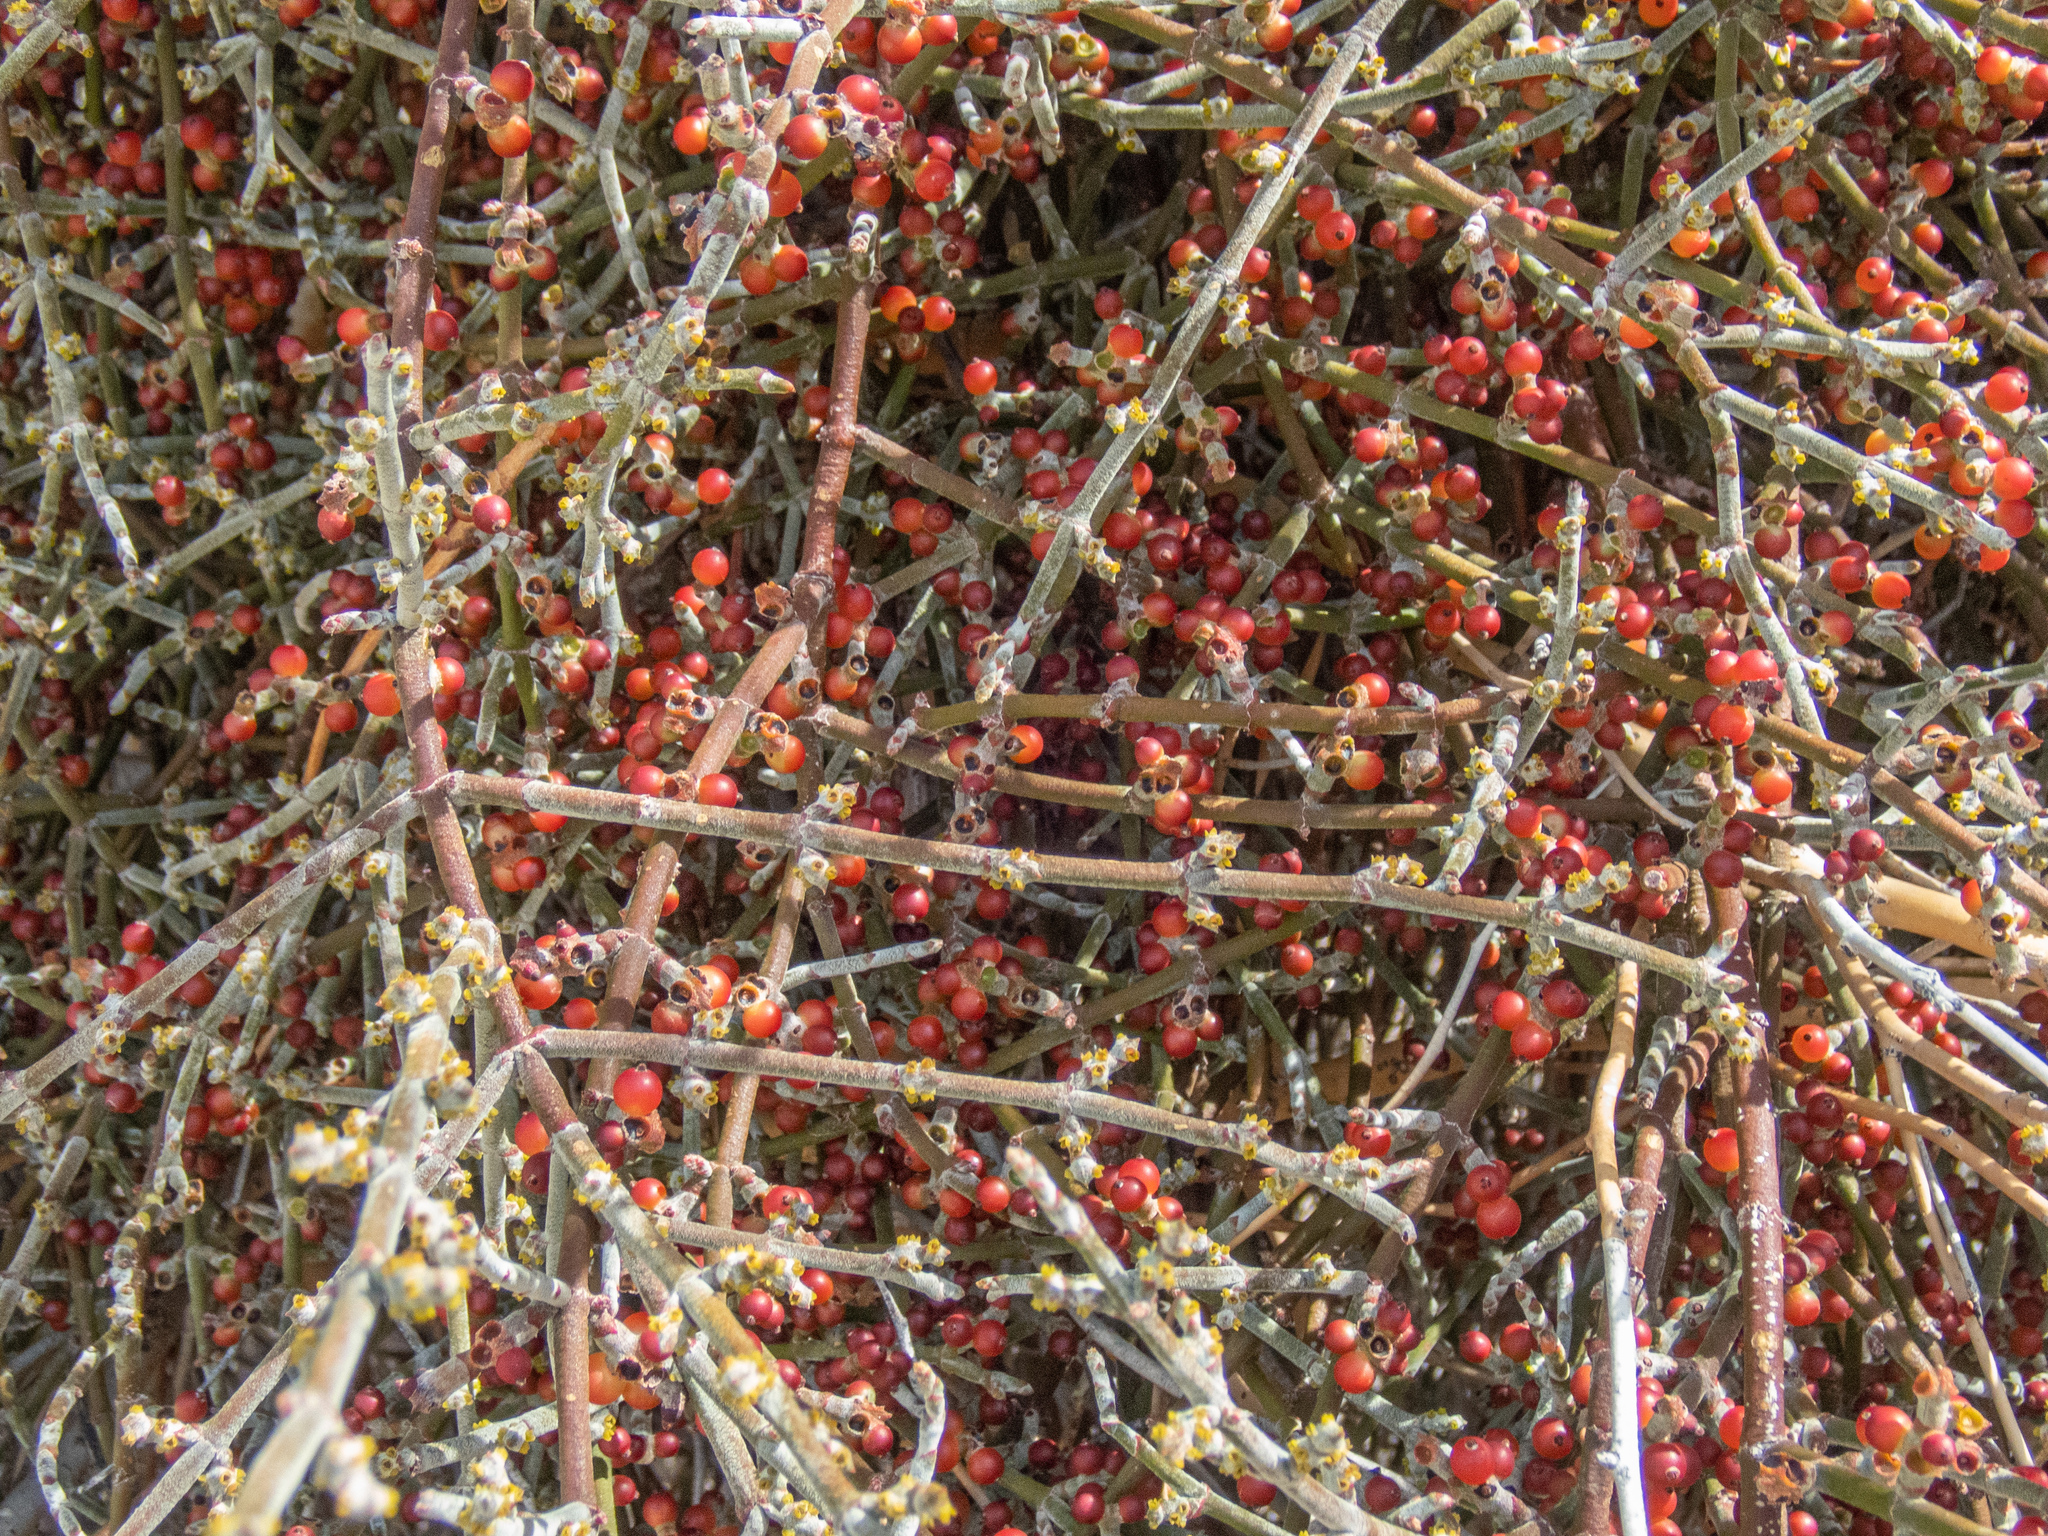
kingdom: Plantae
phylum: Tracheophyta
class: Magnoliopsida
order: Santalales
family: Viscaceae
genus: Phoradendron
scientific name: Phoradendron californicum
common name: Acacia mistletoe
